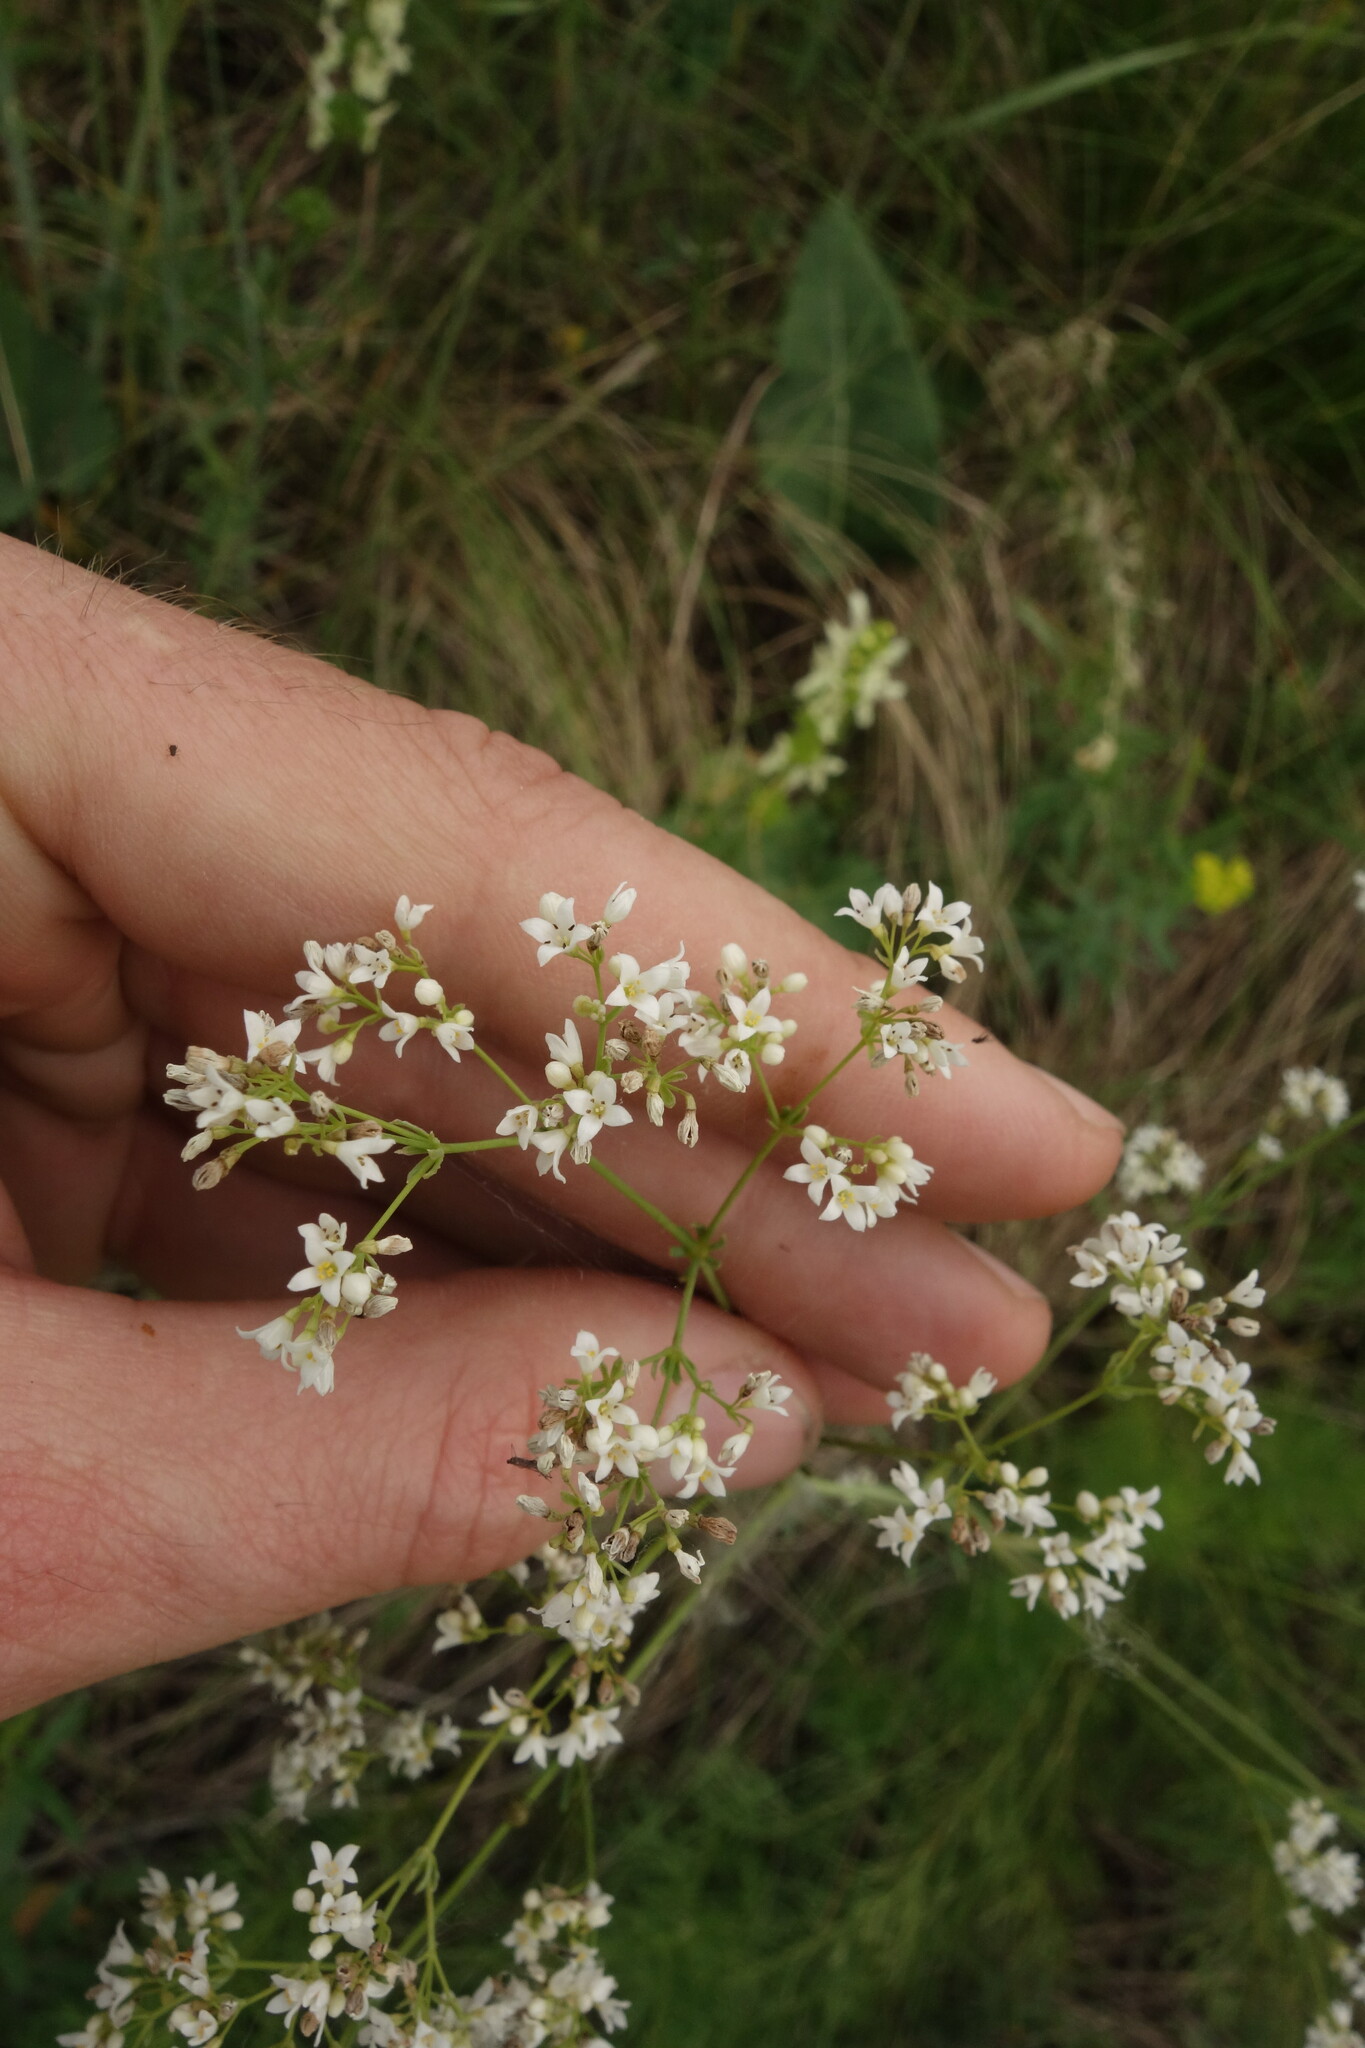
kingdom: Plantae
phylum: Tracheophyta
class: Magnoliopsida
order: Gentianales
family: Rubiaceae
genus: Galium
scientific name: Galium octonarium
